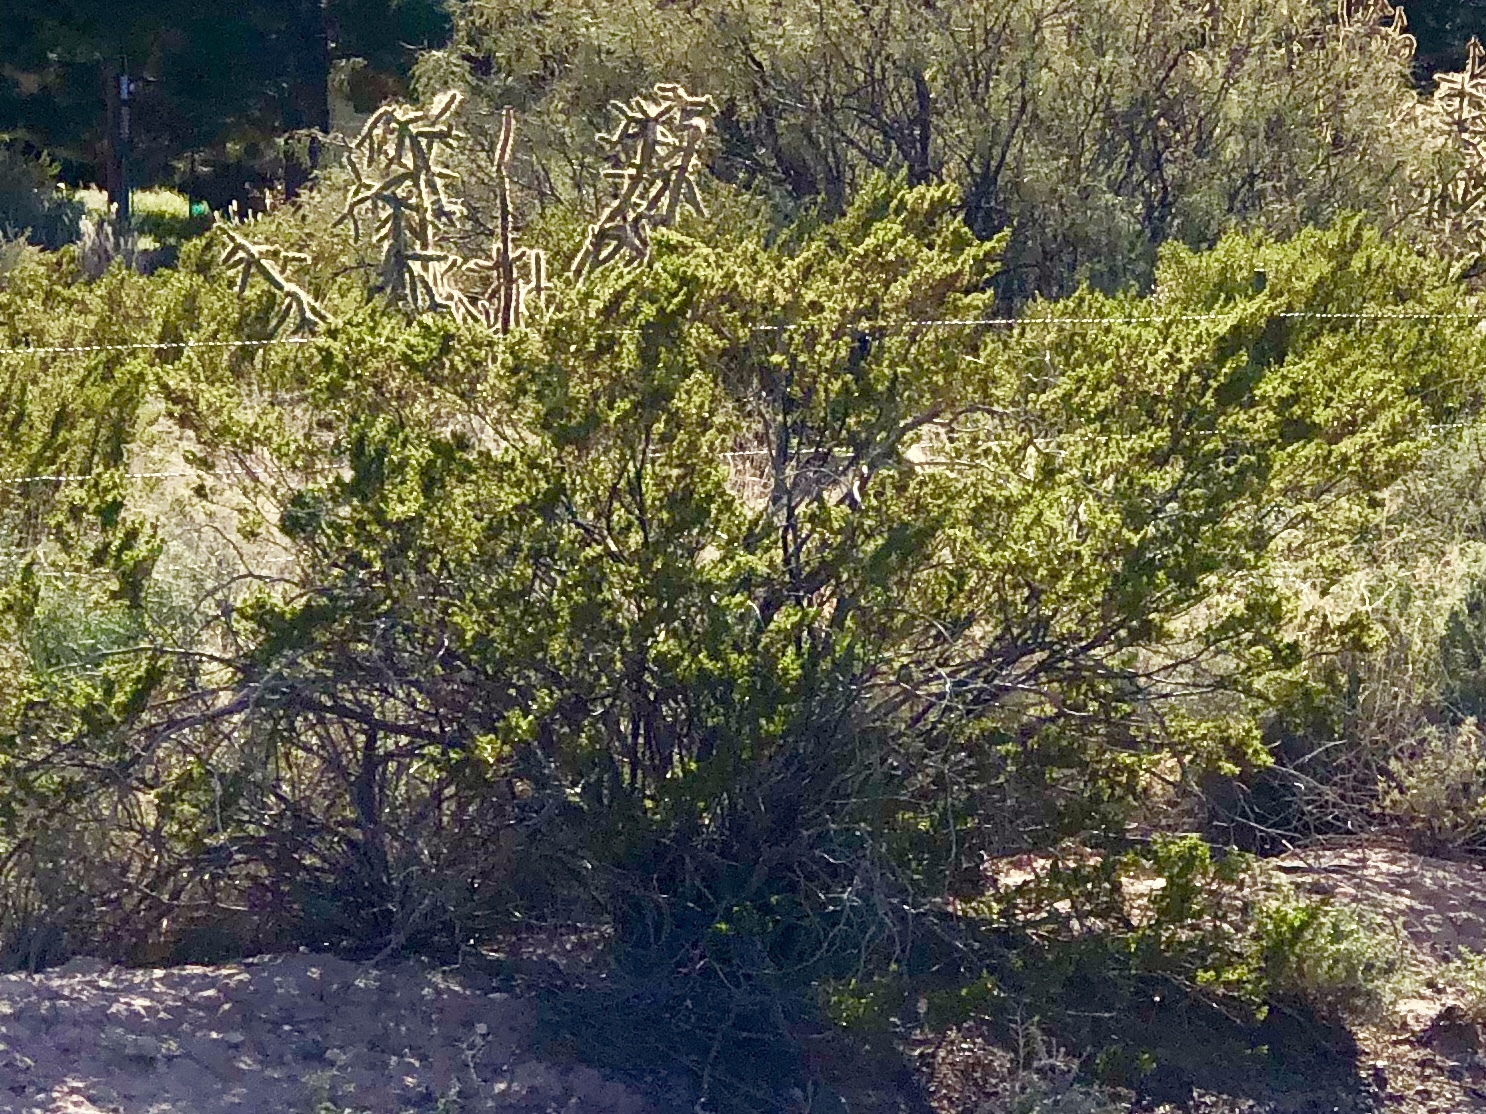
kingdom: Plantae
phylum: Tracheophyta
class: Magnoliopsida
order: Zygophyllales
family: Zygophyllaceae
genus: Larrea
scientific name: Larrea tridentata
